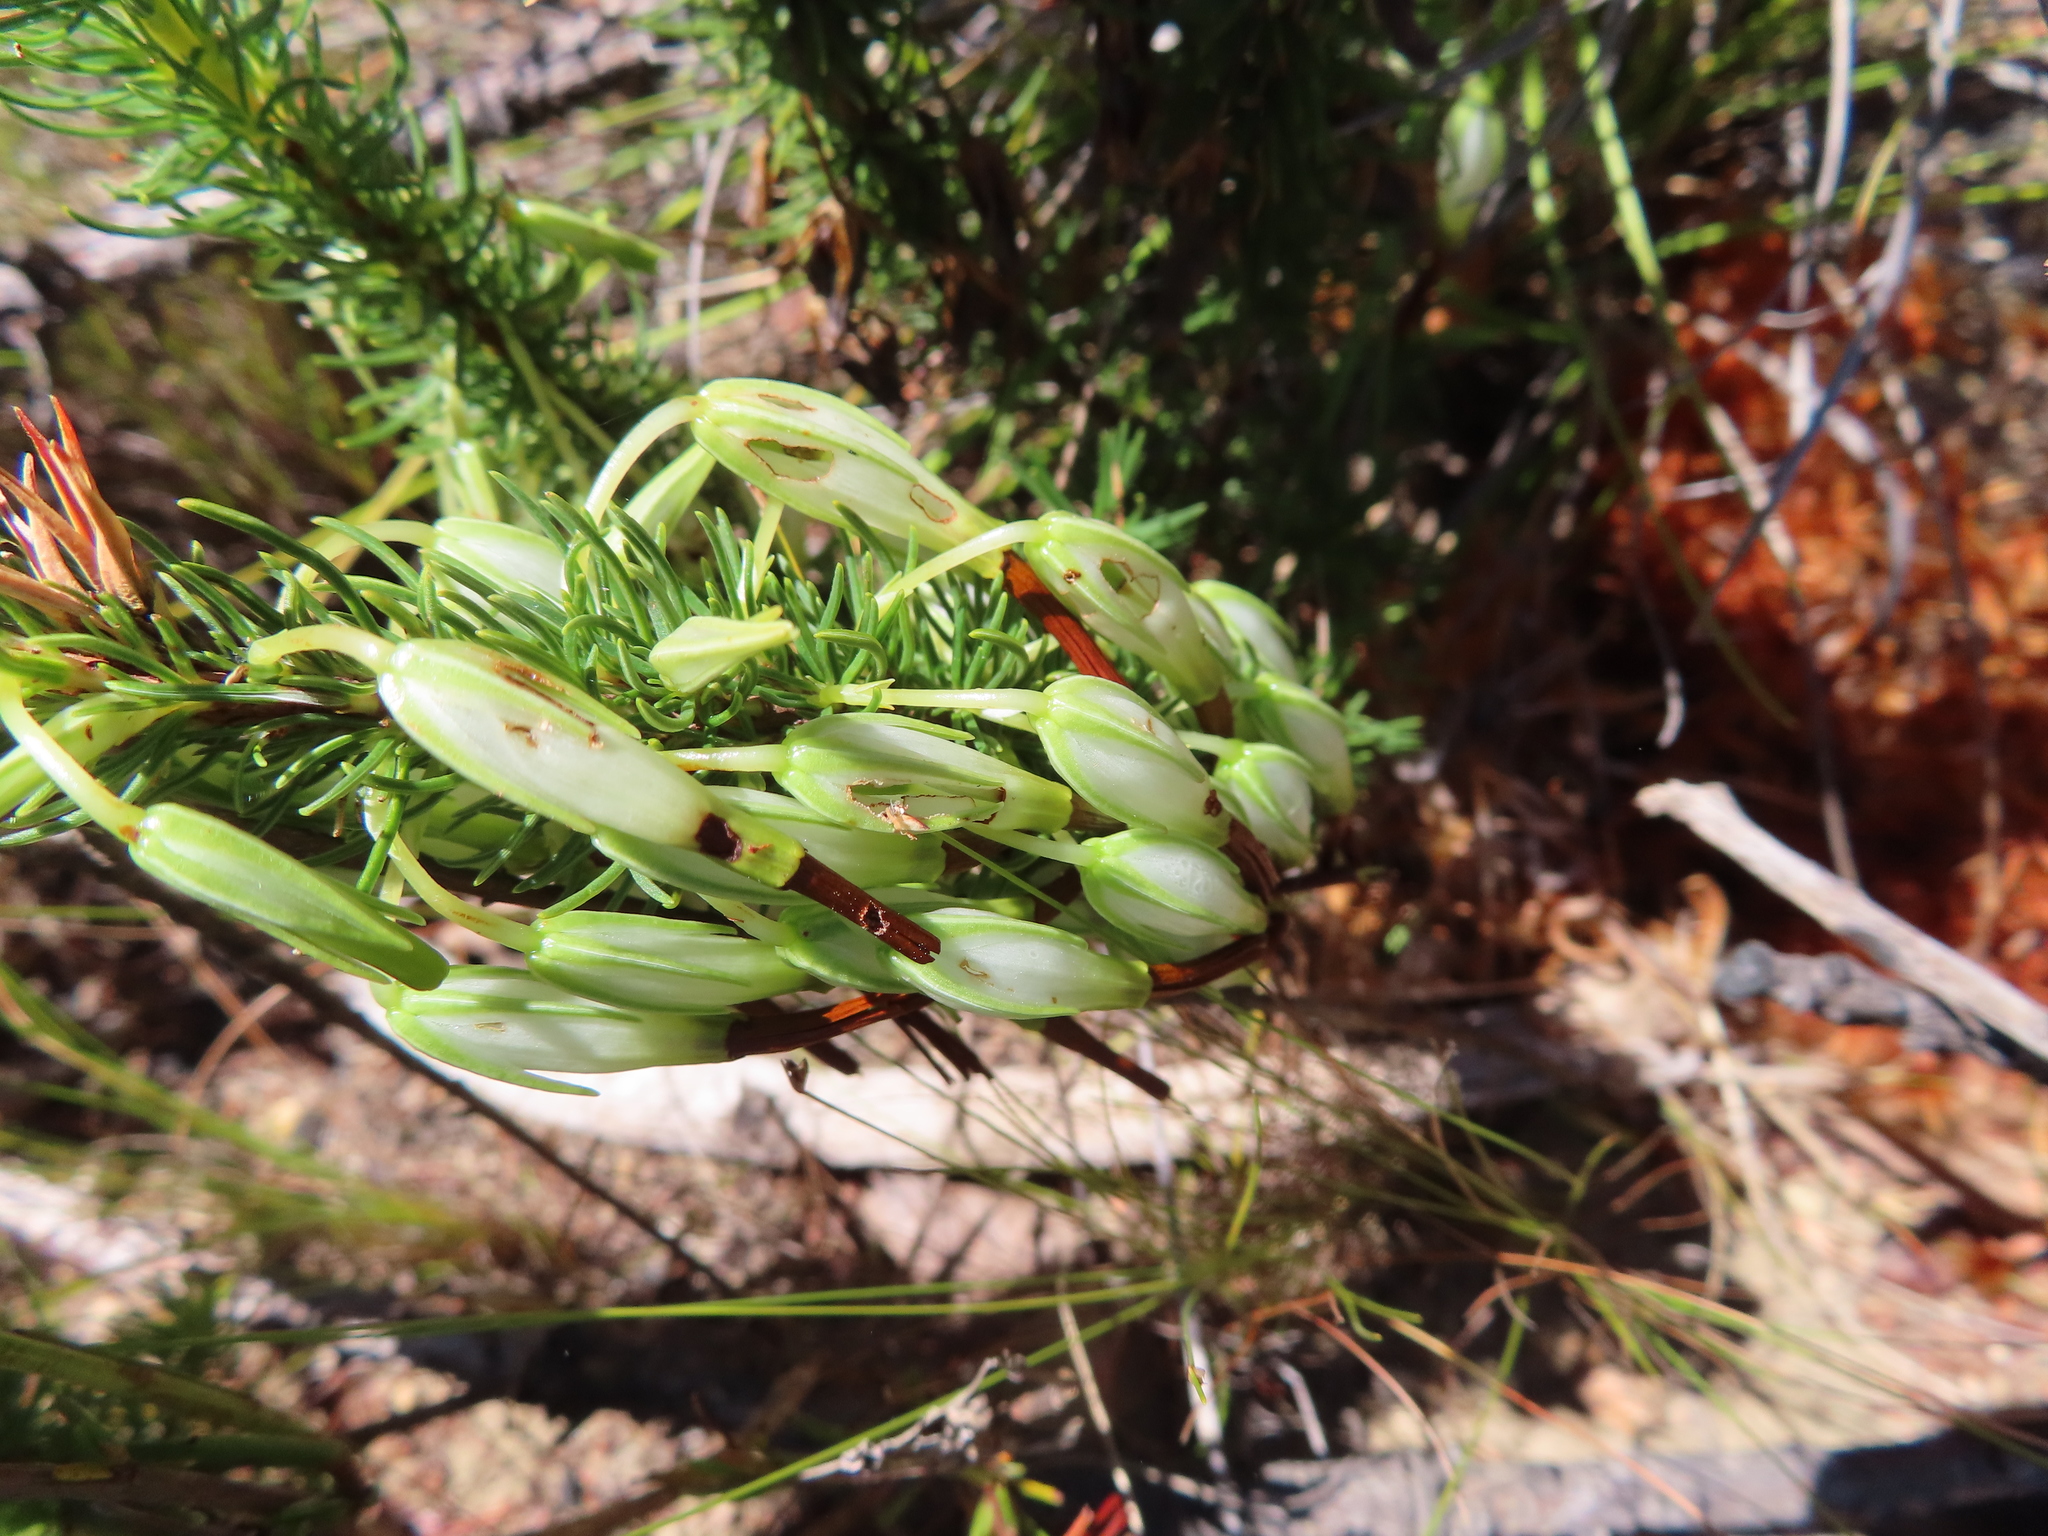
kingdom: Plantae
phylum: Tracheophyta
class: Magnoliopsida
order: Ericales
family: Ericaceae
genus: Erica
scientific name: Erica plukenetii
